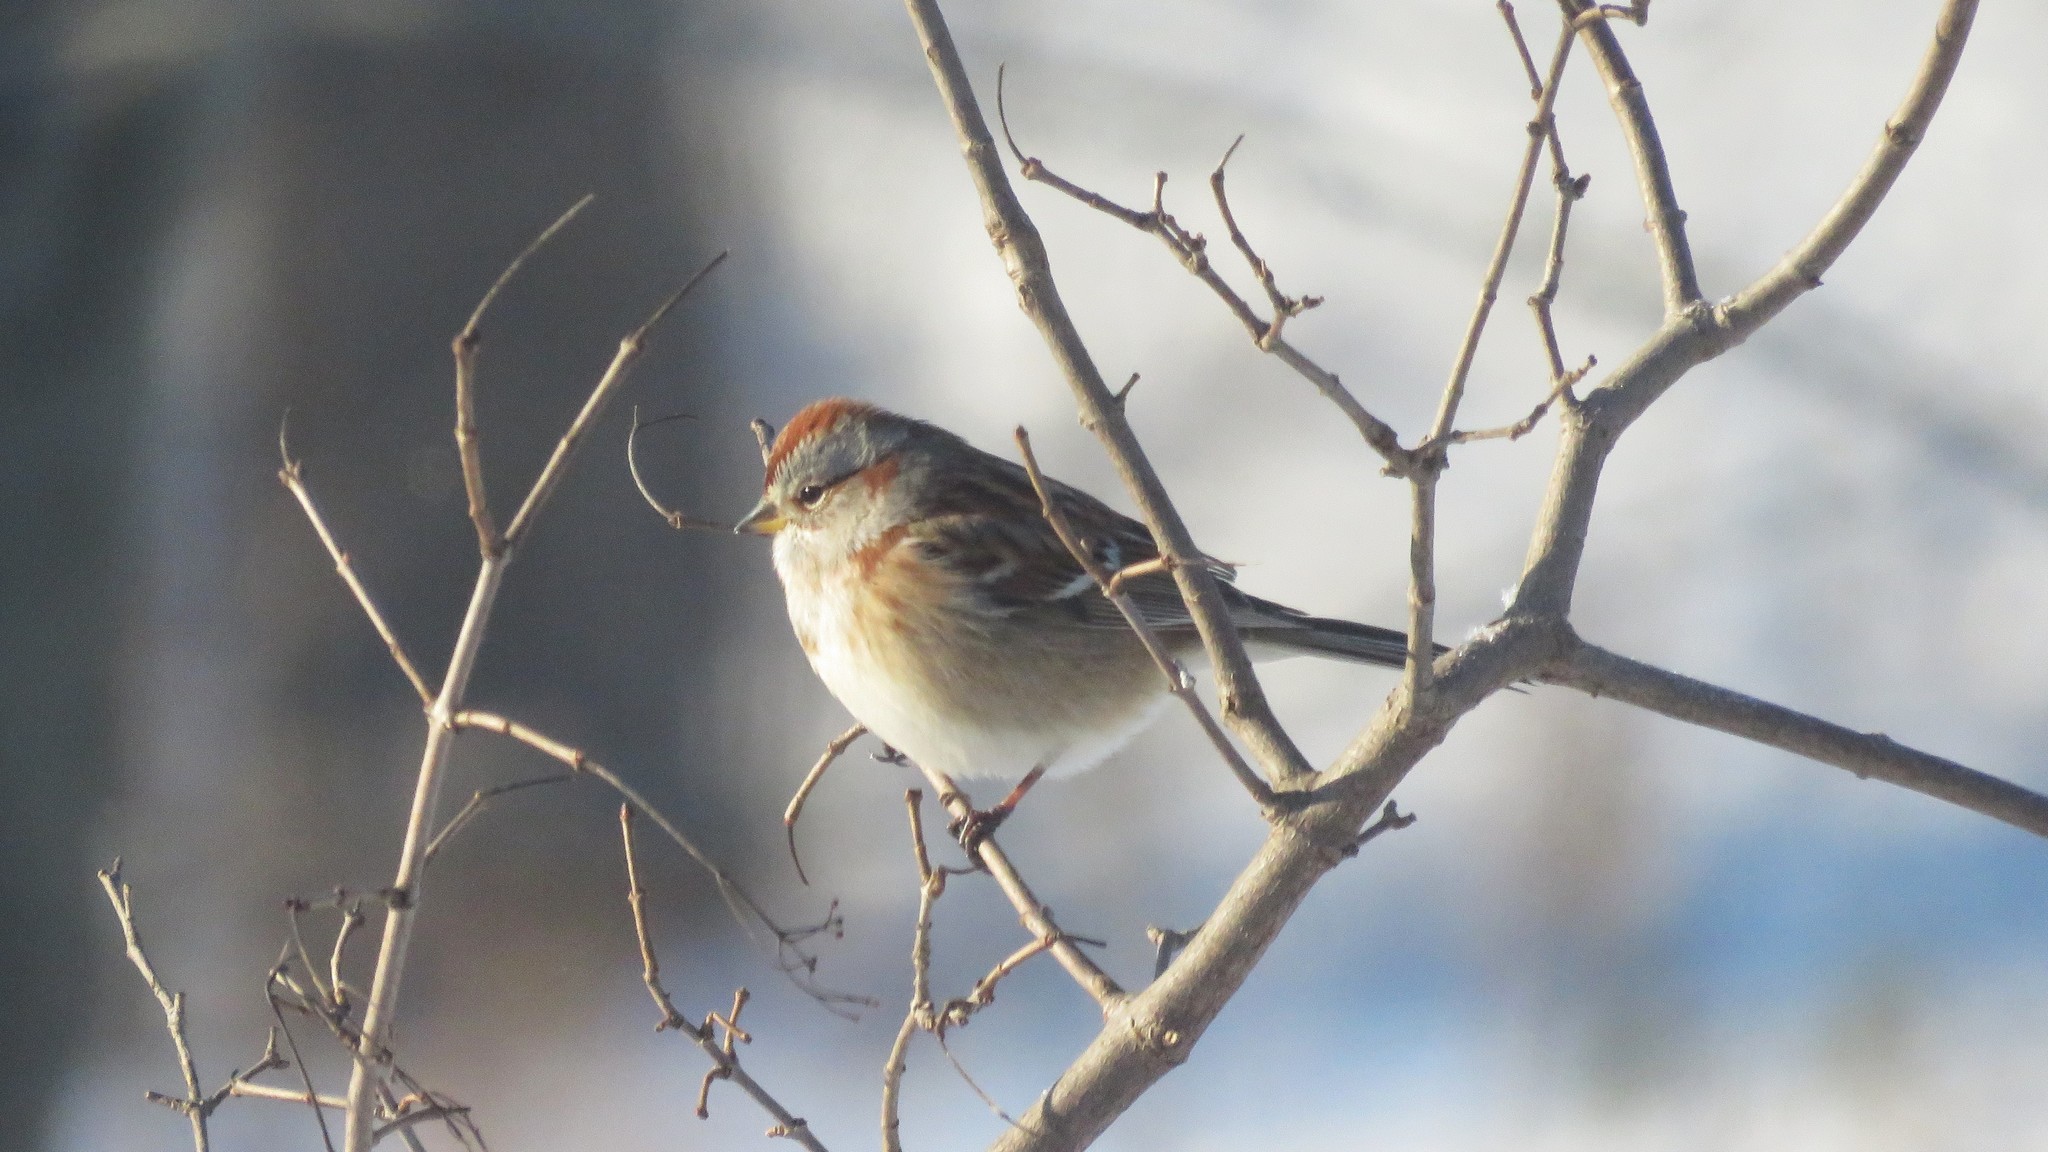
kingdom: Animalia
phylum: Chordata
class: Aves
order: Passeriformes
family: Passerellidae
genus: Spizelloides
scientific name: Spizelloides arborea
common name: American tree sparrow
